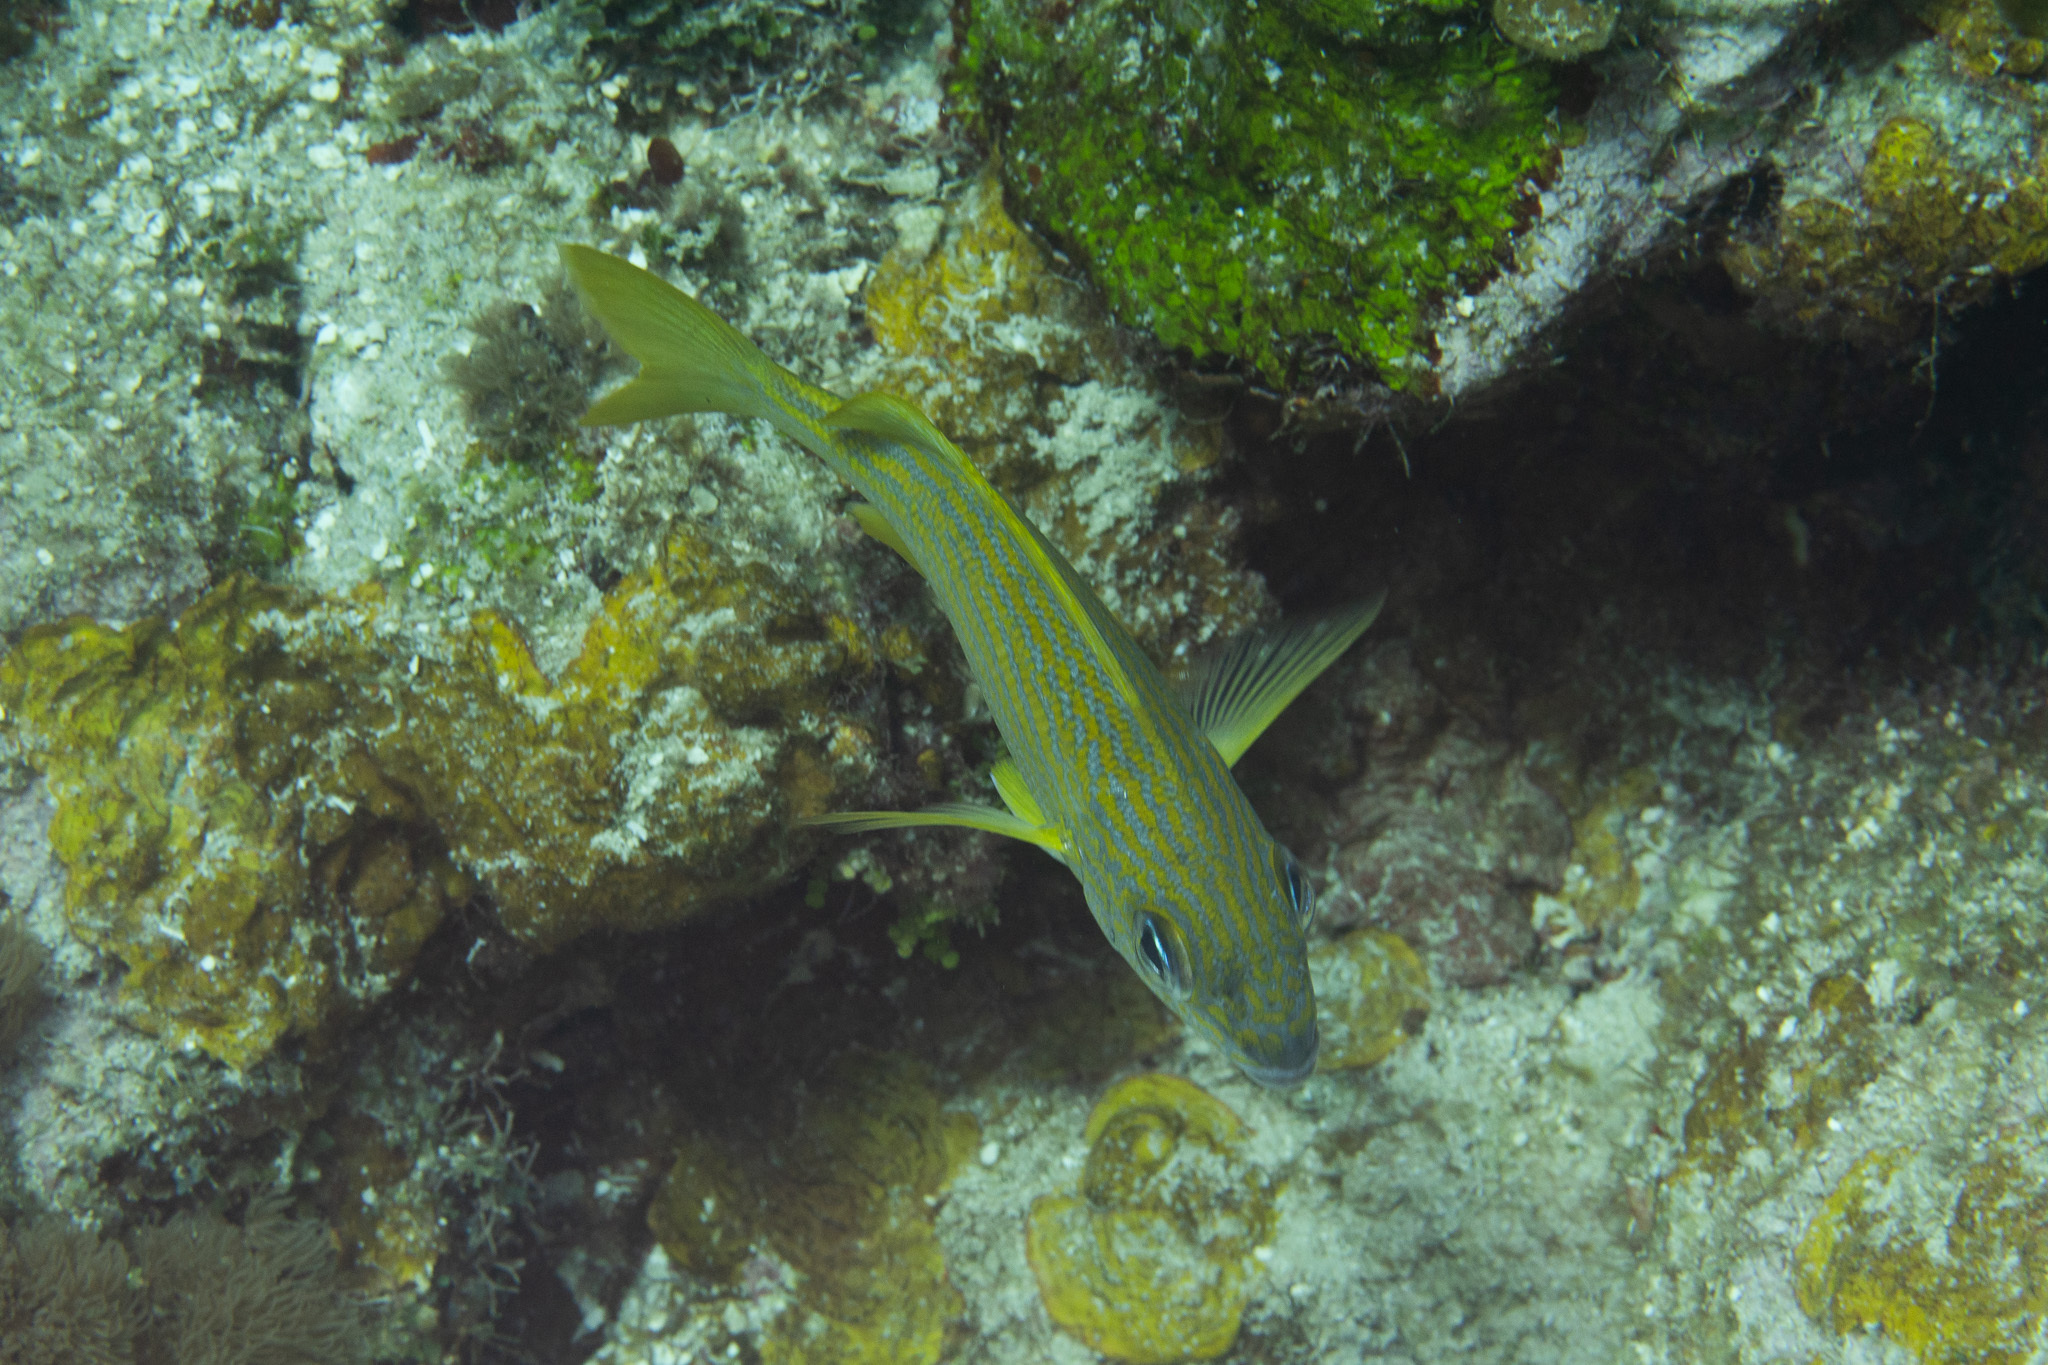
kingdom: Animalia
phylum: Chordata
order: Perciformes
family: Haemulidae
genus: Haemulon
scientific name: Haemulon flavolineatum
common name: French grunt
